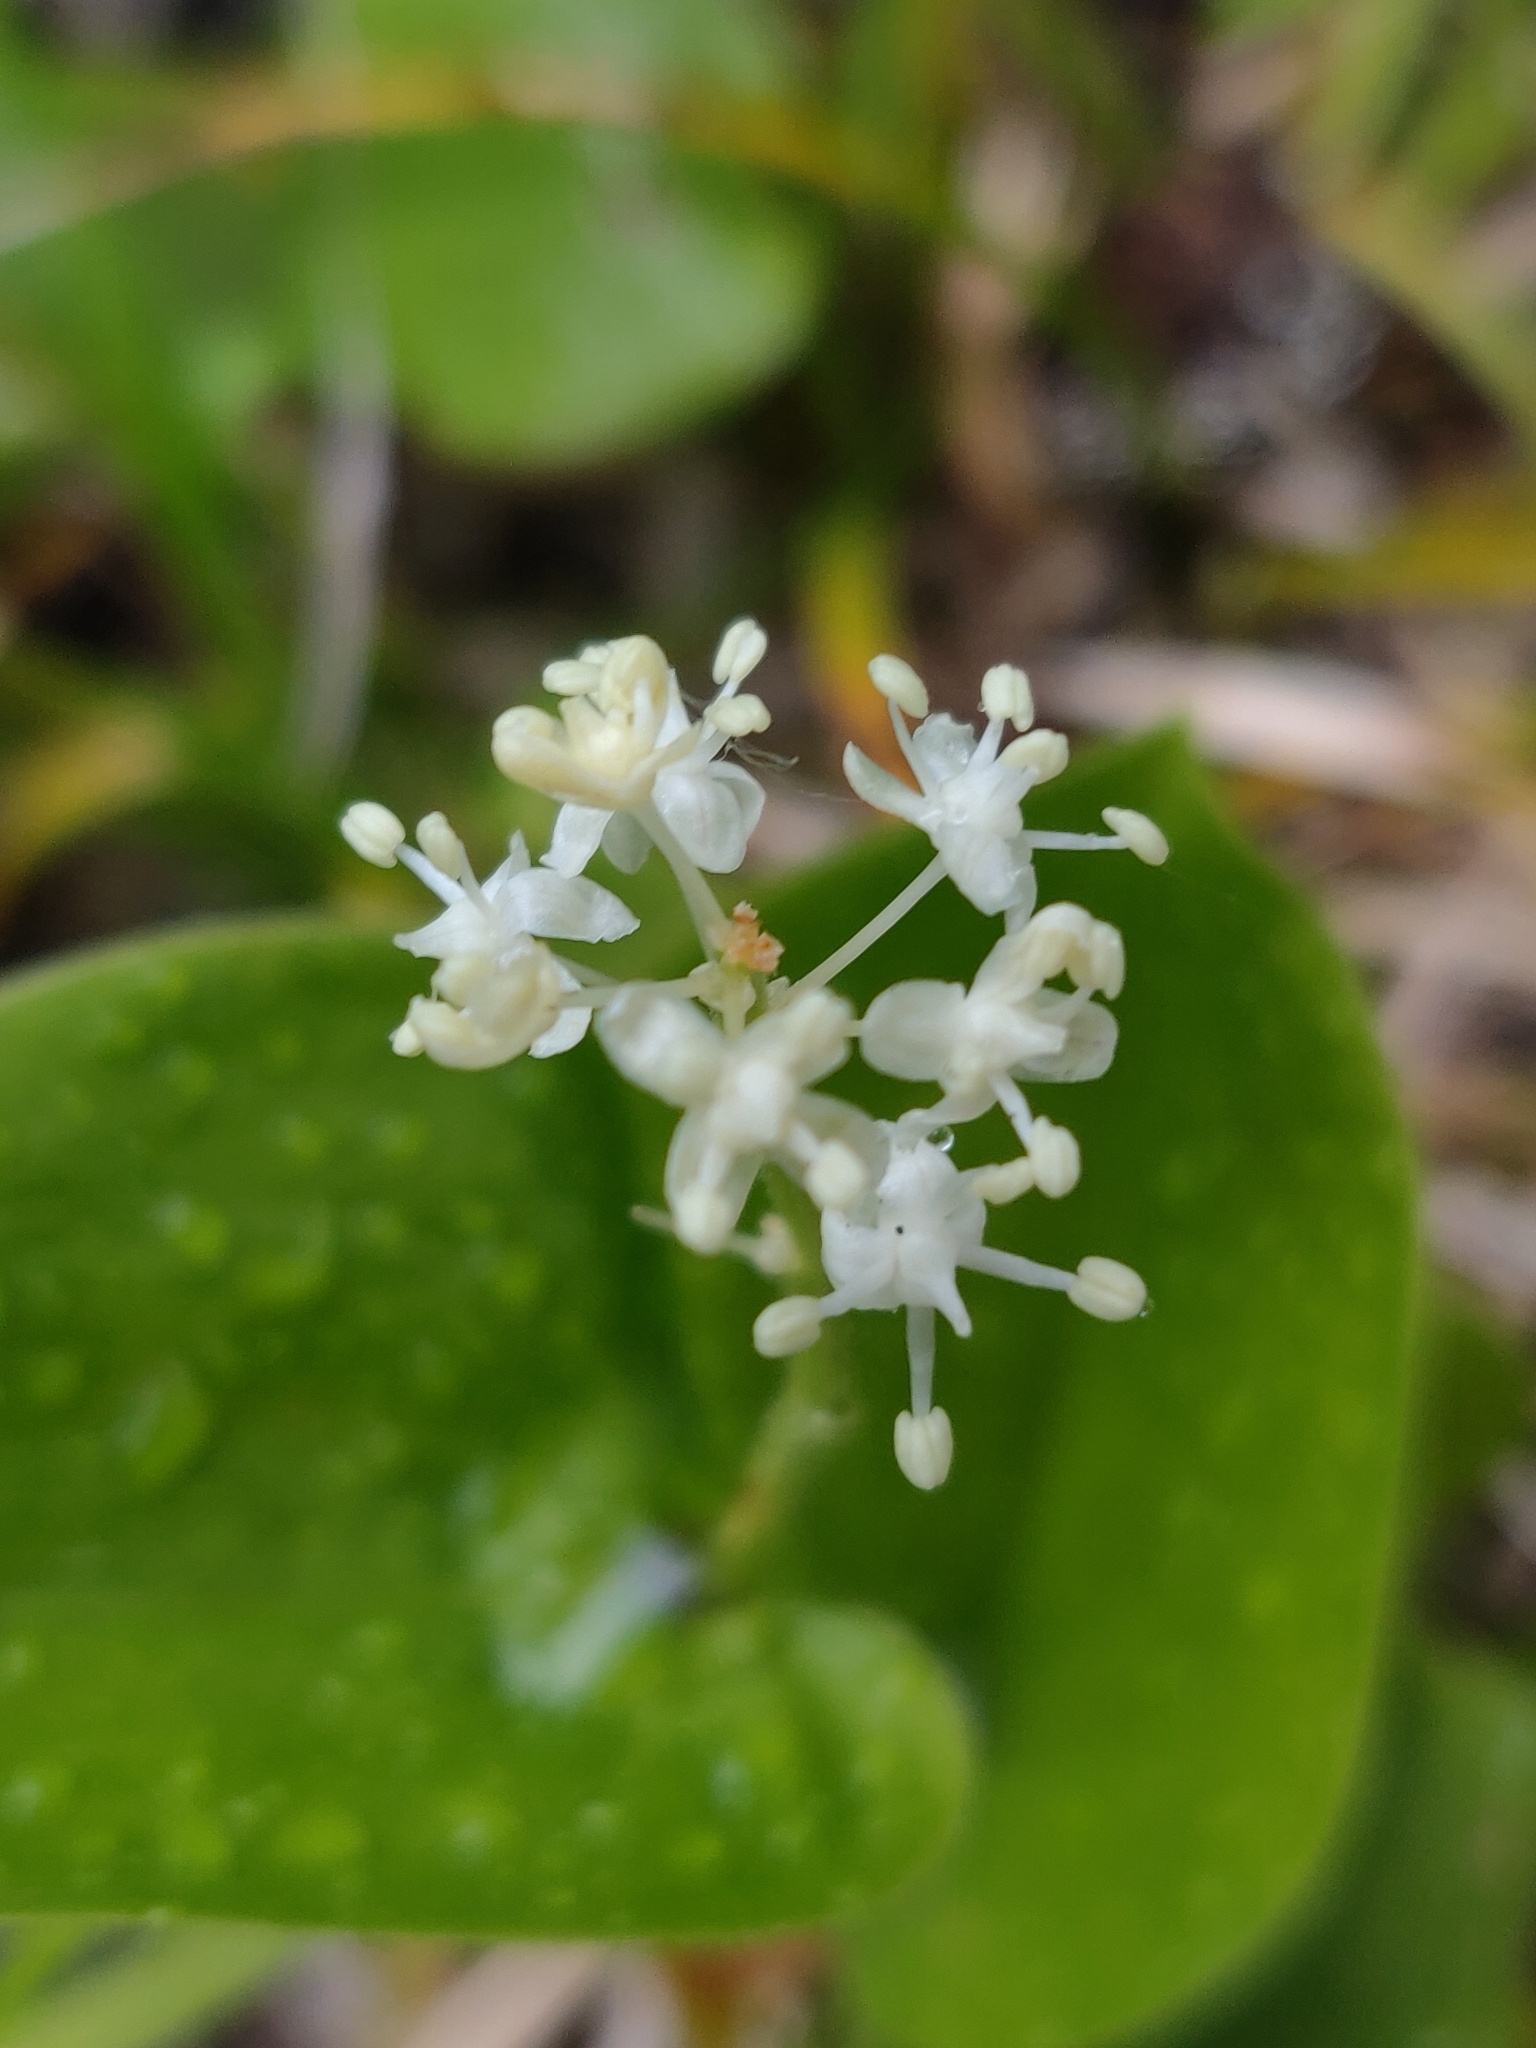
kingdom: Plantae
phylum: Tracheophyta
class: Liliopsida
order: Asparagales
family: Asparagaceae
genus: Maianthemum
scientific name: Maianthemum canadense
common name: False lily-of-the-valley
